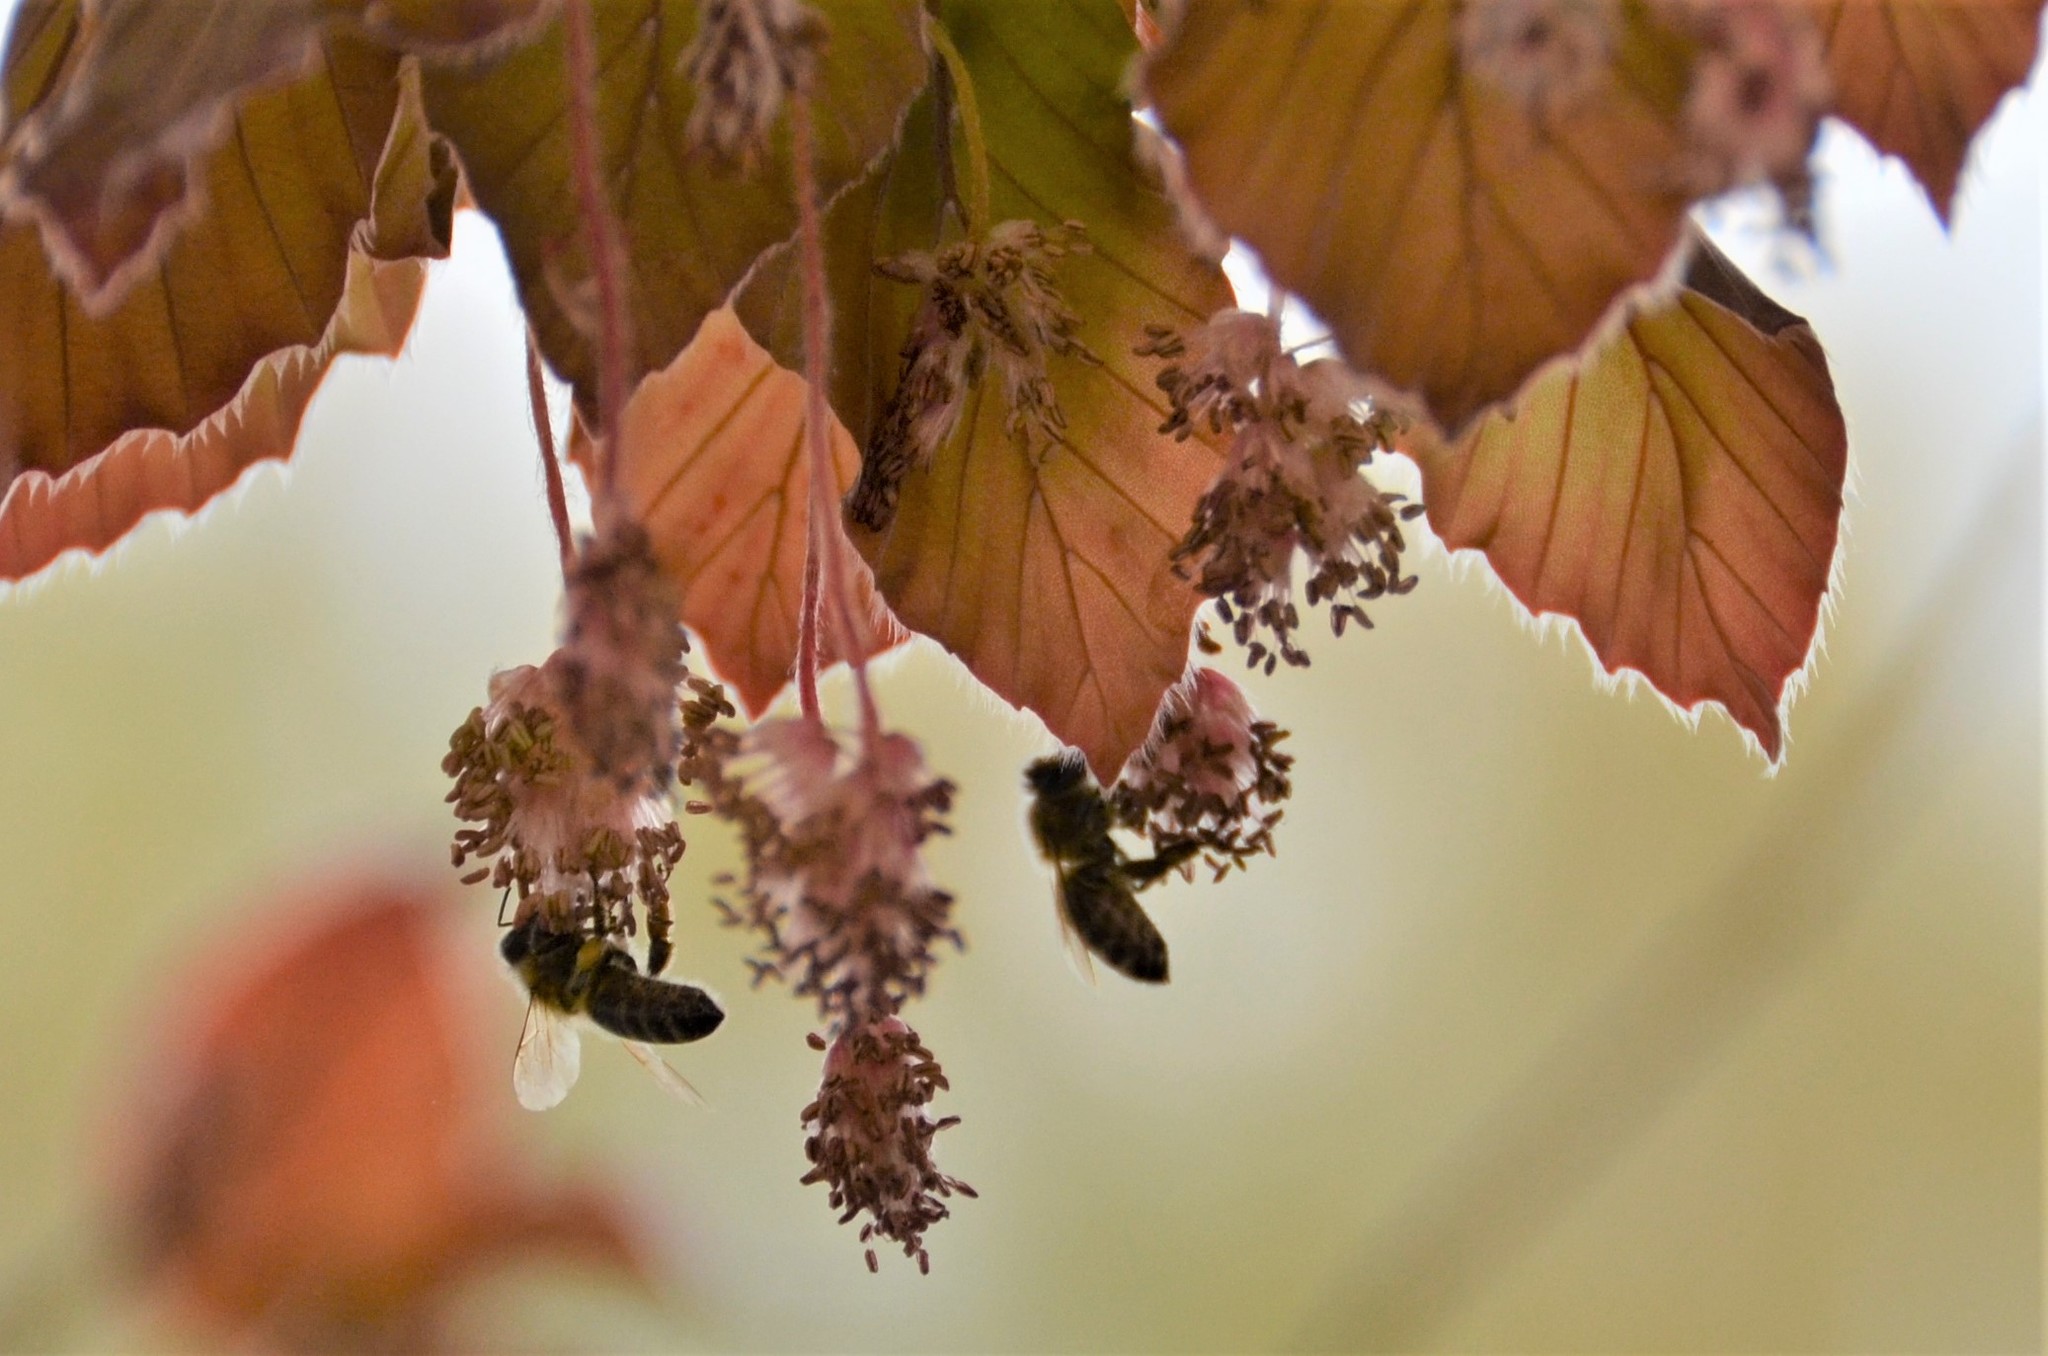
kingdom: Animalia
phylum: Arthropoda
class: Insecta
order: Hymenoptera
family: Apidae
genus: Apis
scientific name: Apis mellifera
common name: Honey bee
